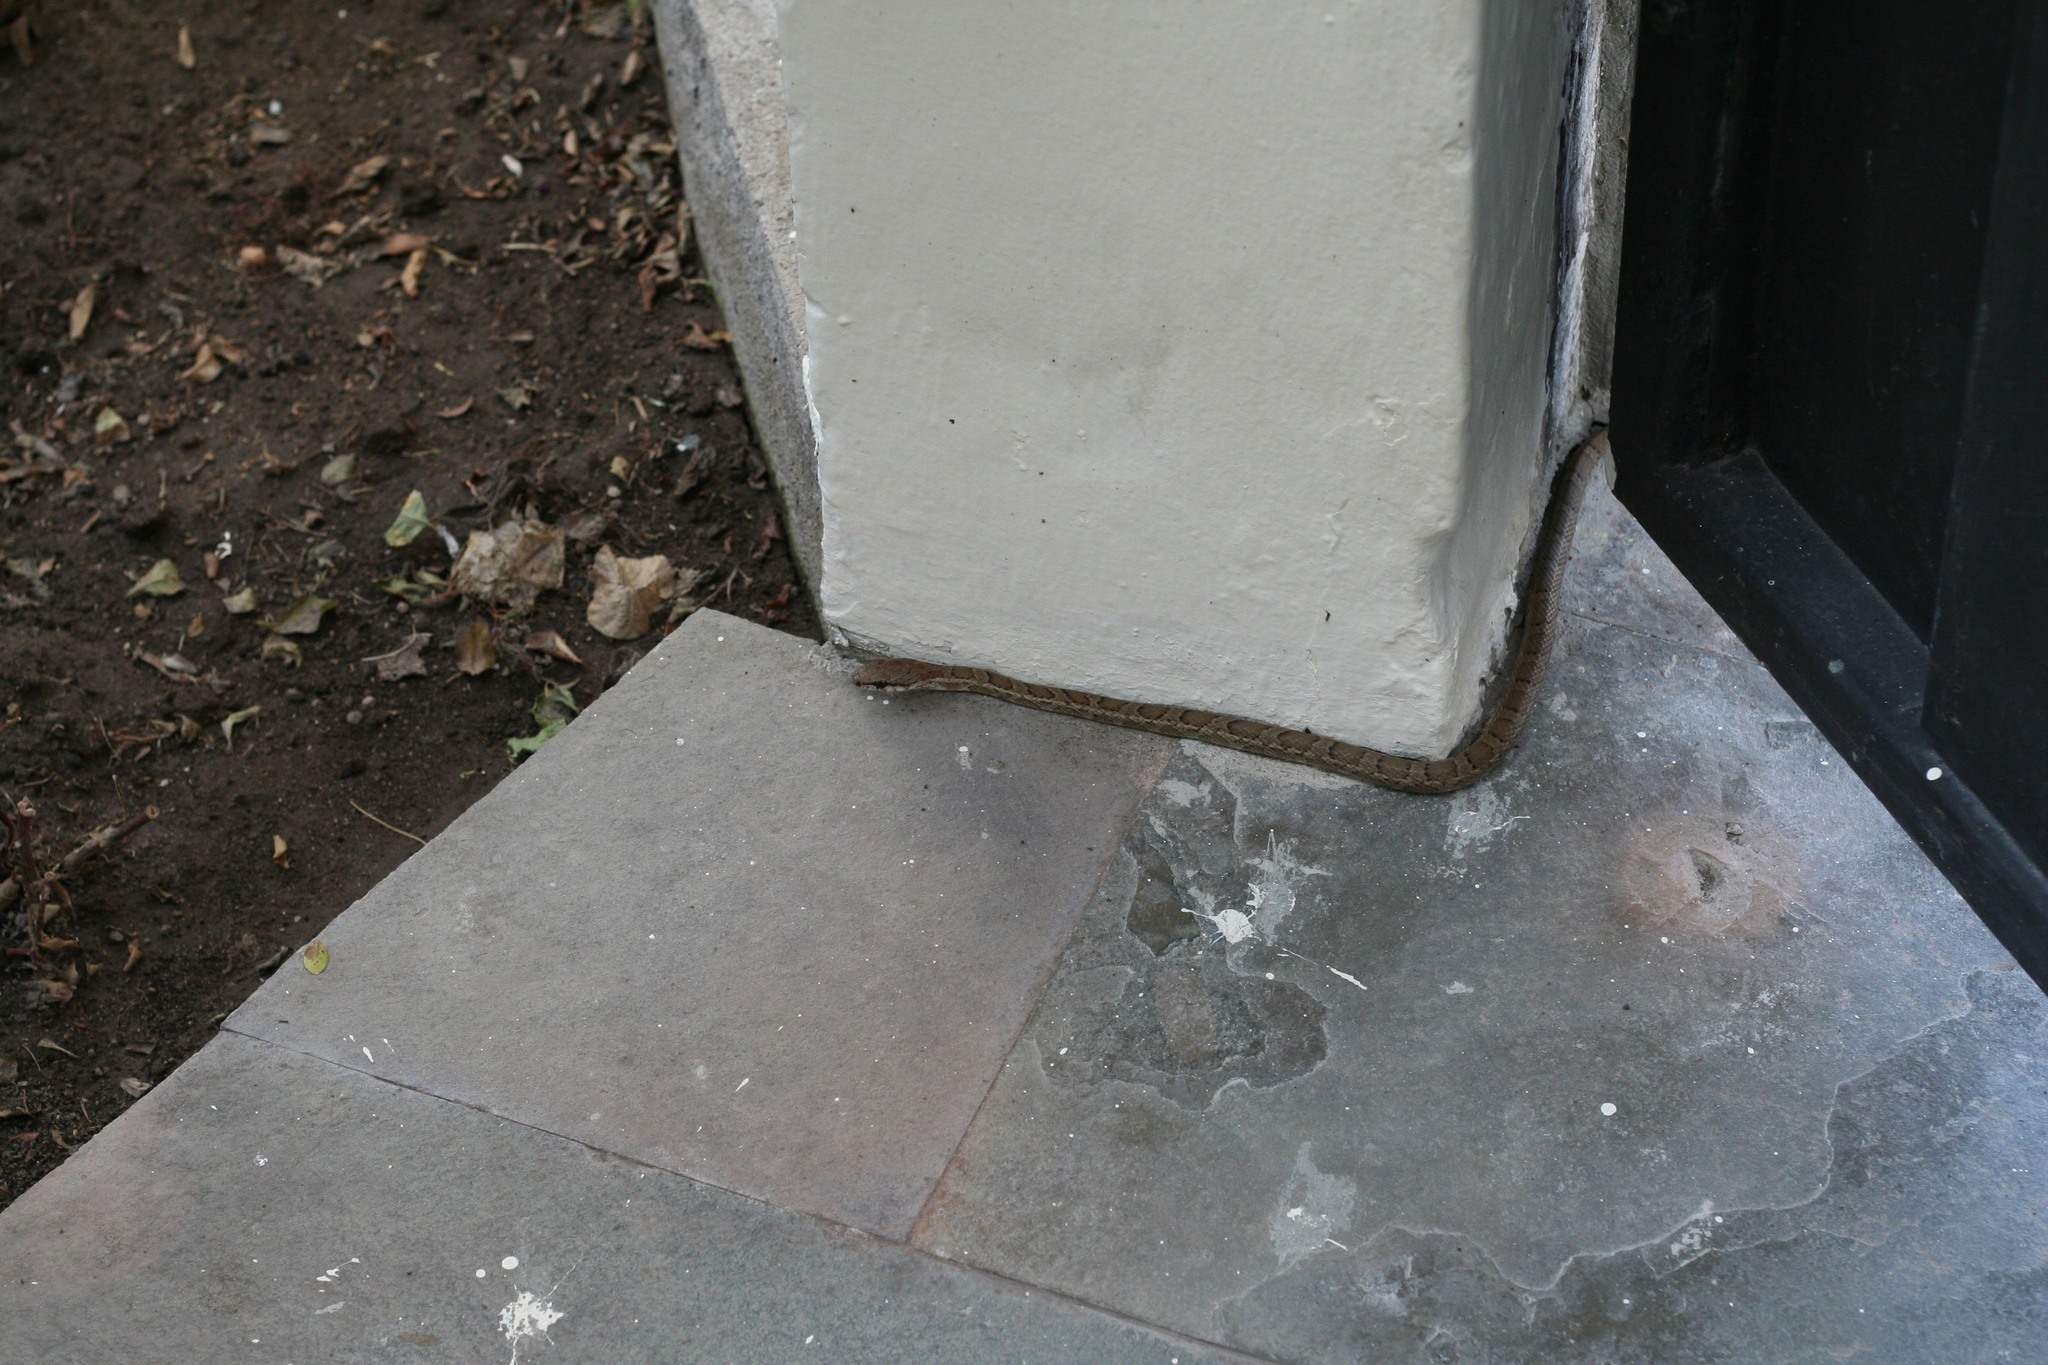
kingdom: Animalia
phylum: Chordata
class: Squamata
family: Colubridae
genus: Mastigodryas
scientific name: Mastigodryas pulchriceps
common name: Cope's tropical racer
